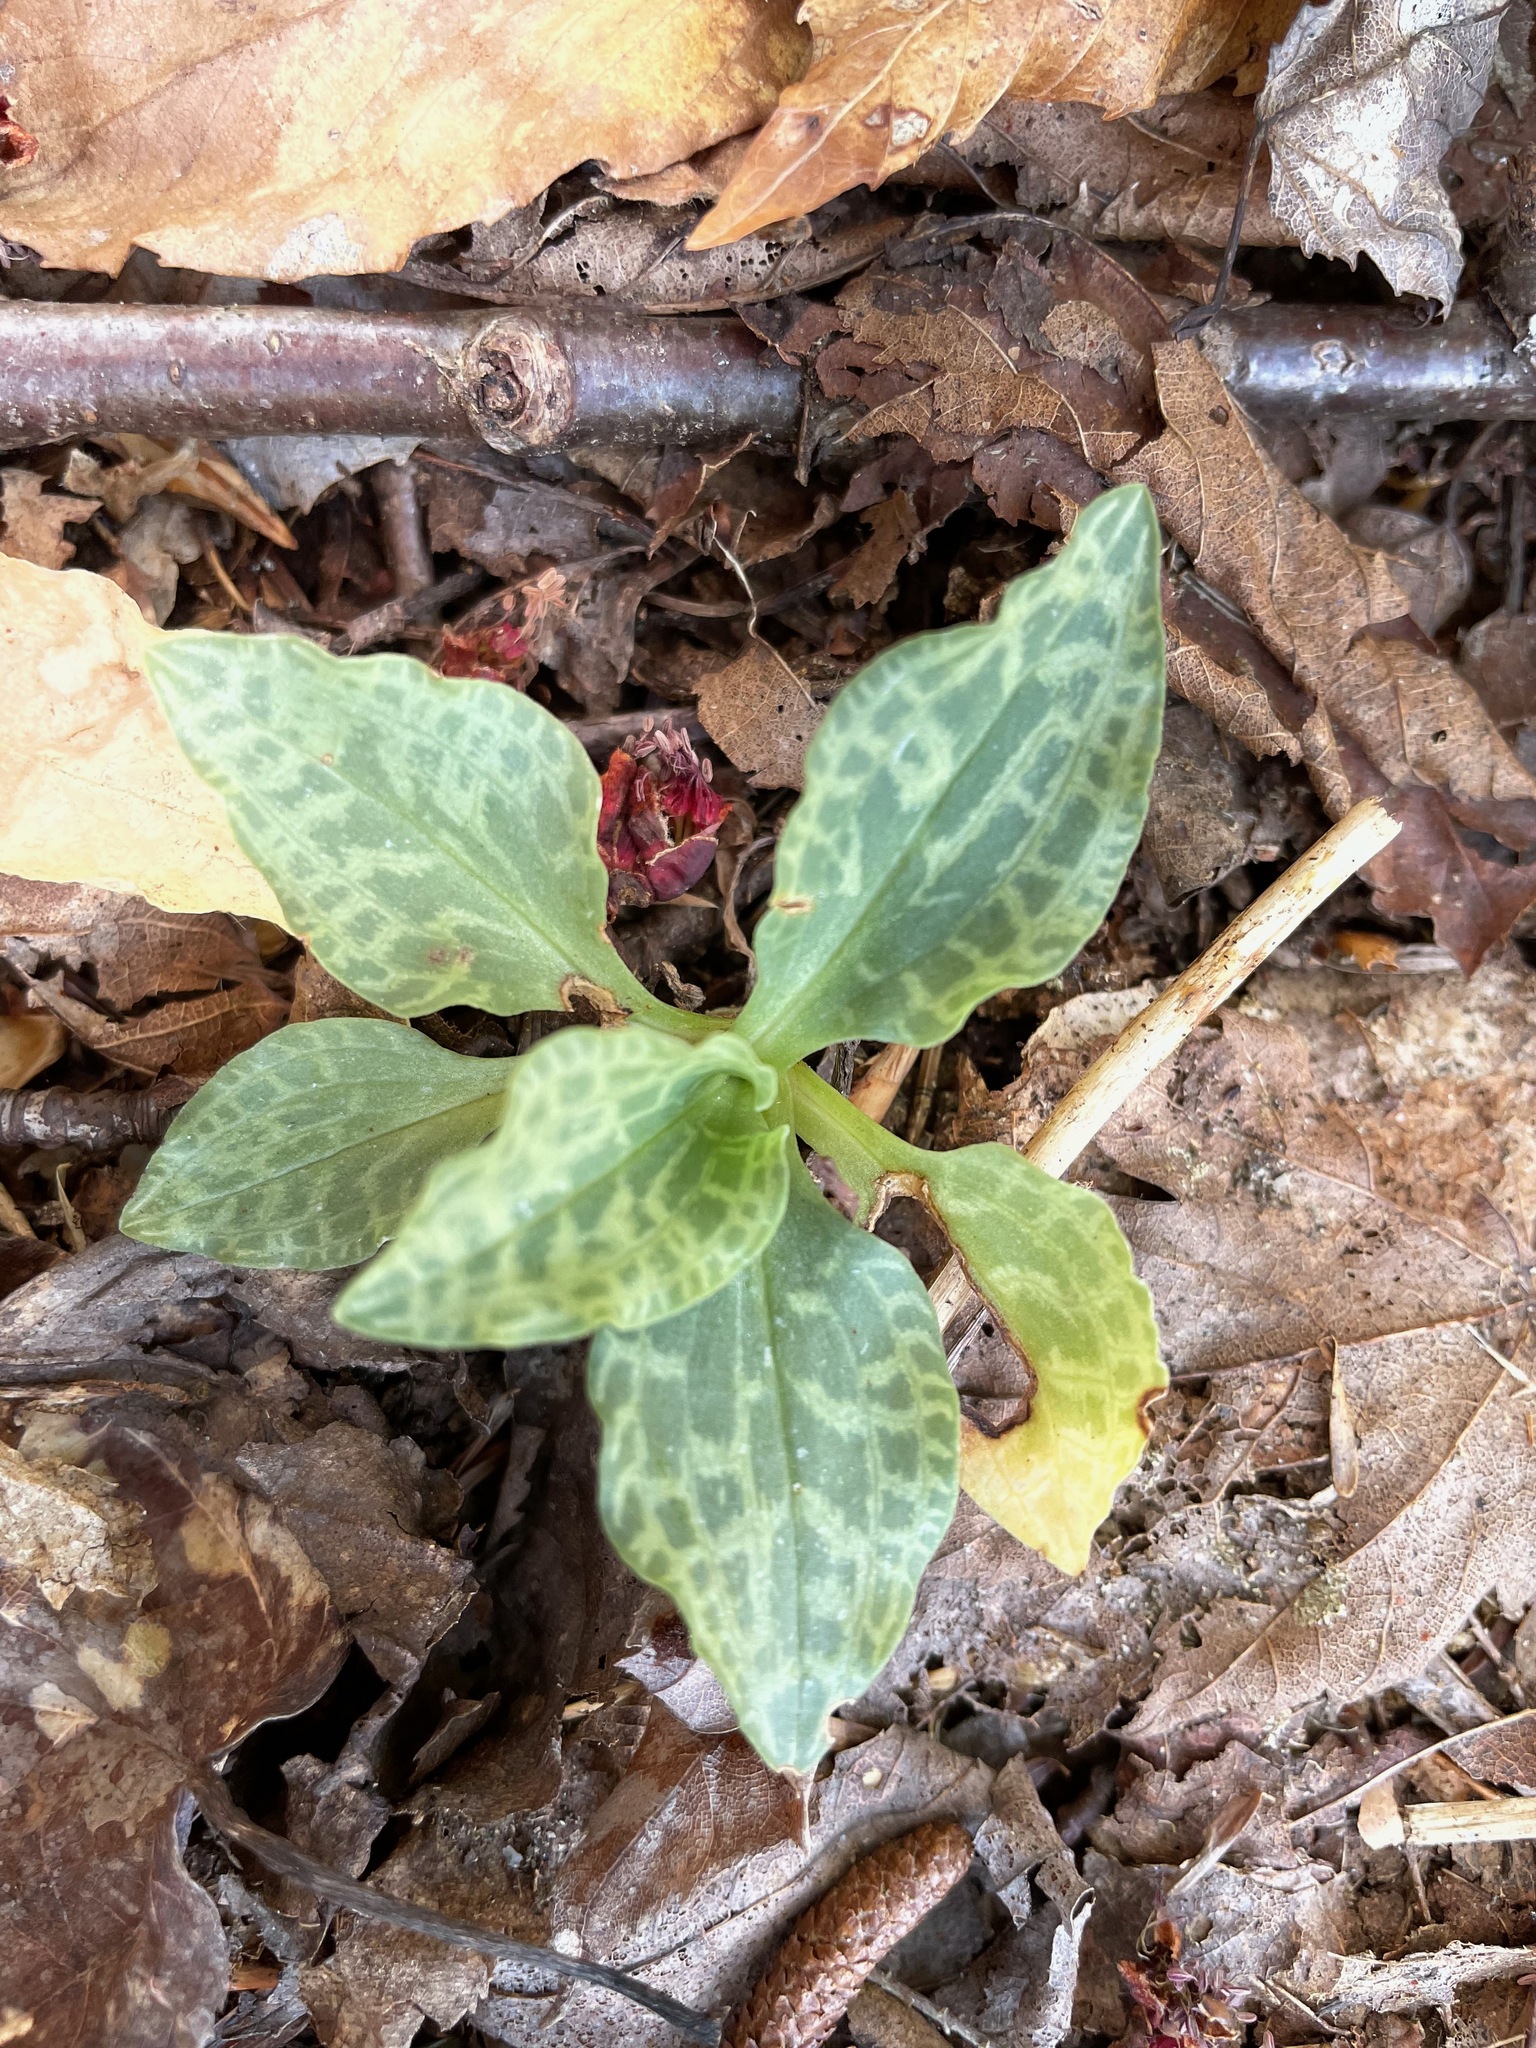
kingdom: Plantae
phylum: Tracheophyta
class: Liliopsida
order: Asparagales
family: Orchidaceae
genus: Goodyera
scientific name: Goodyera tesselata
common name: Checkered rattlesnake-plantain
